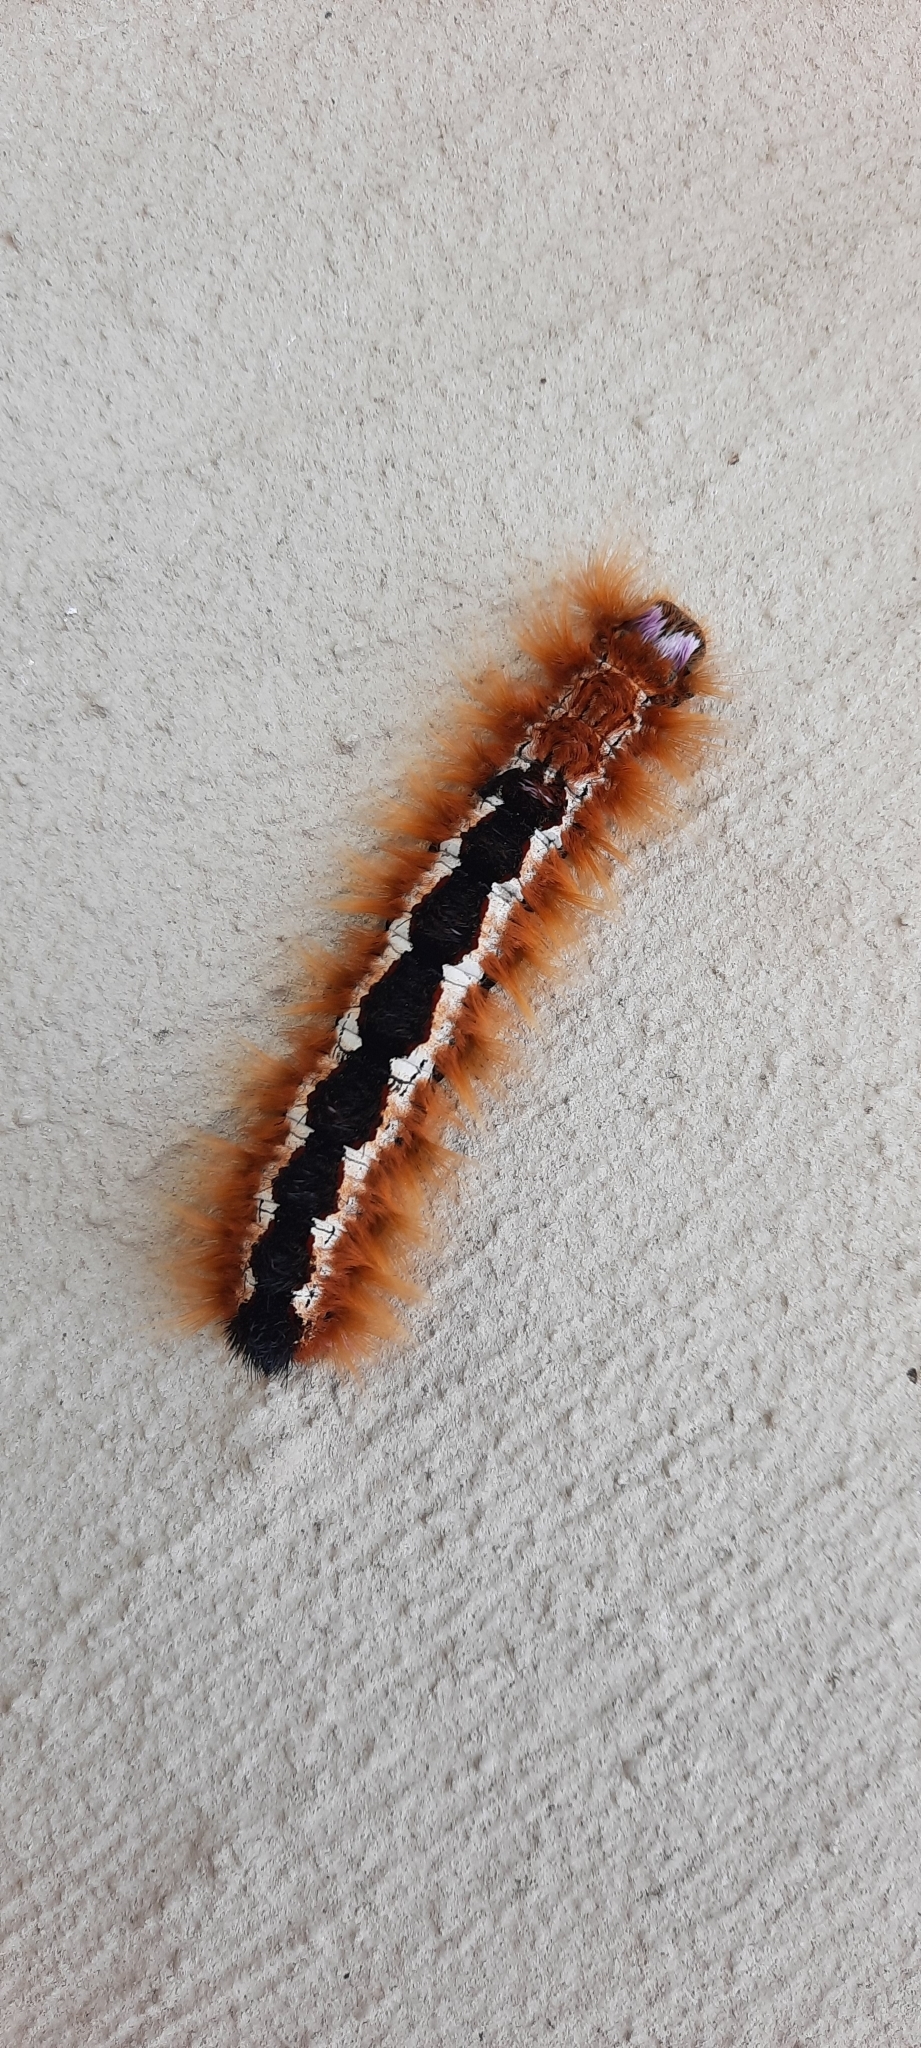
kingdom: Animalia
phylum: Arthropoda
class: Insecta
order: Lepidoptera
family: Lasiocampidae
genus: Eutricha
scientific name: Eutricha capensis
